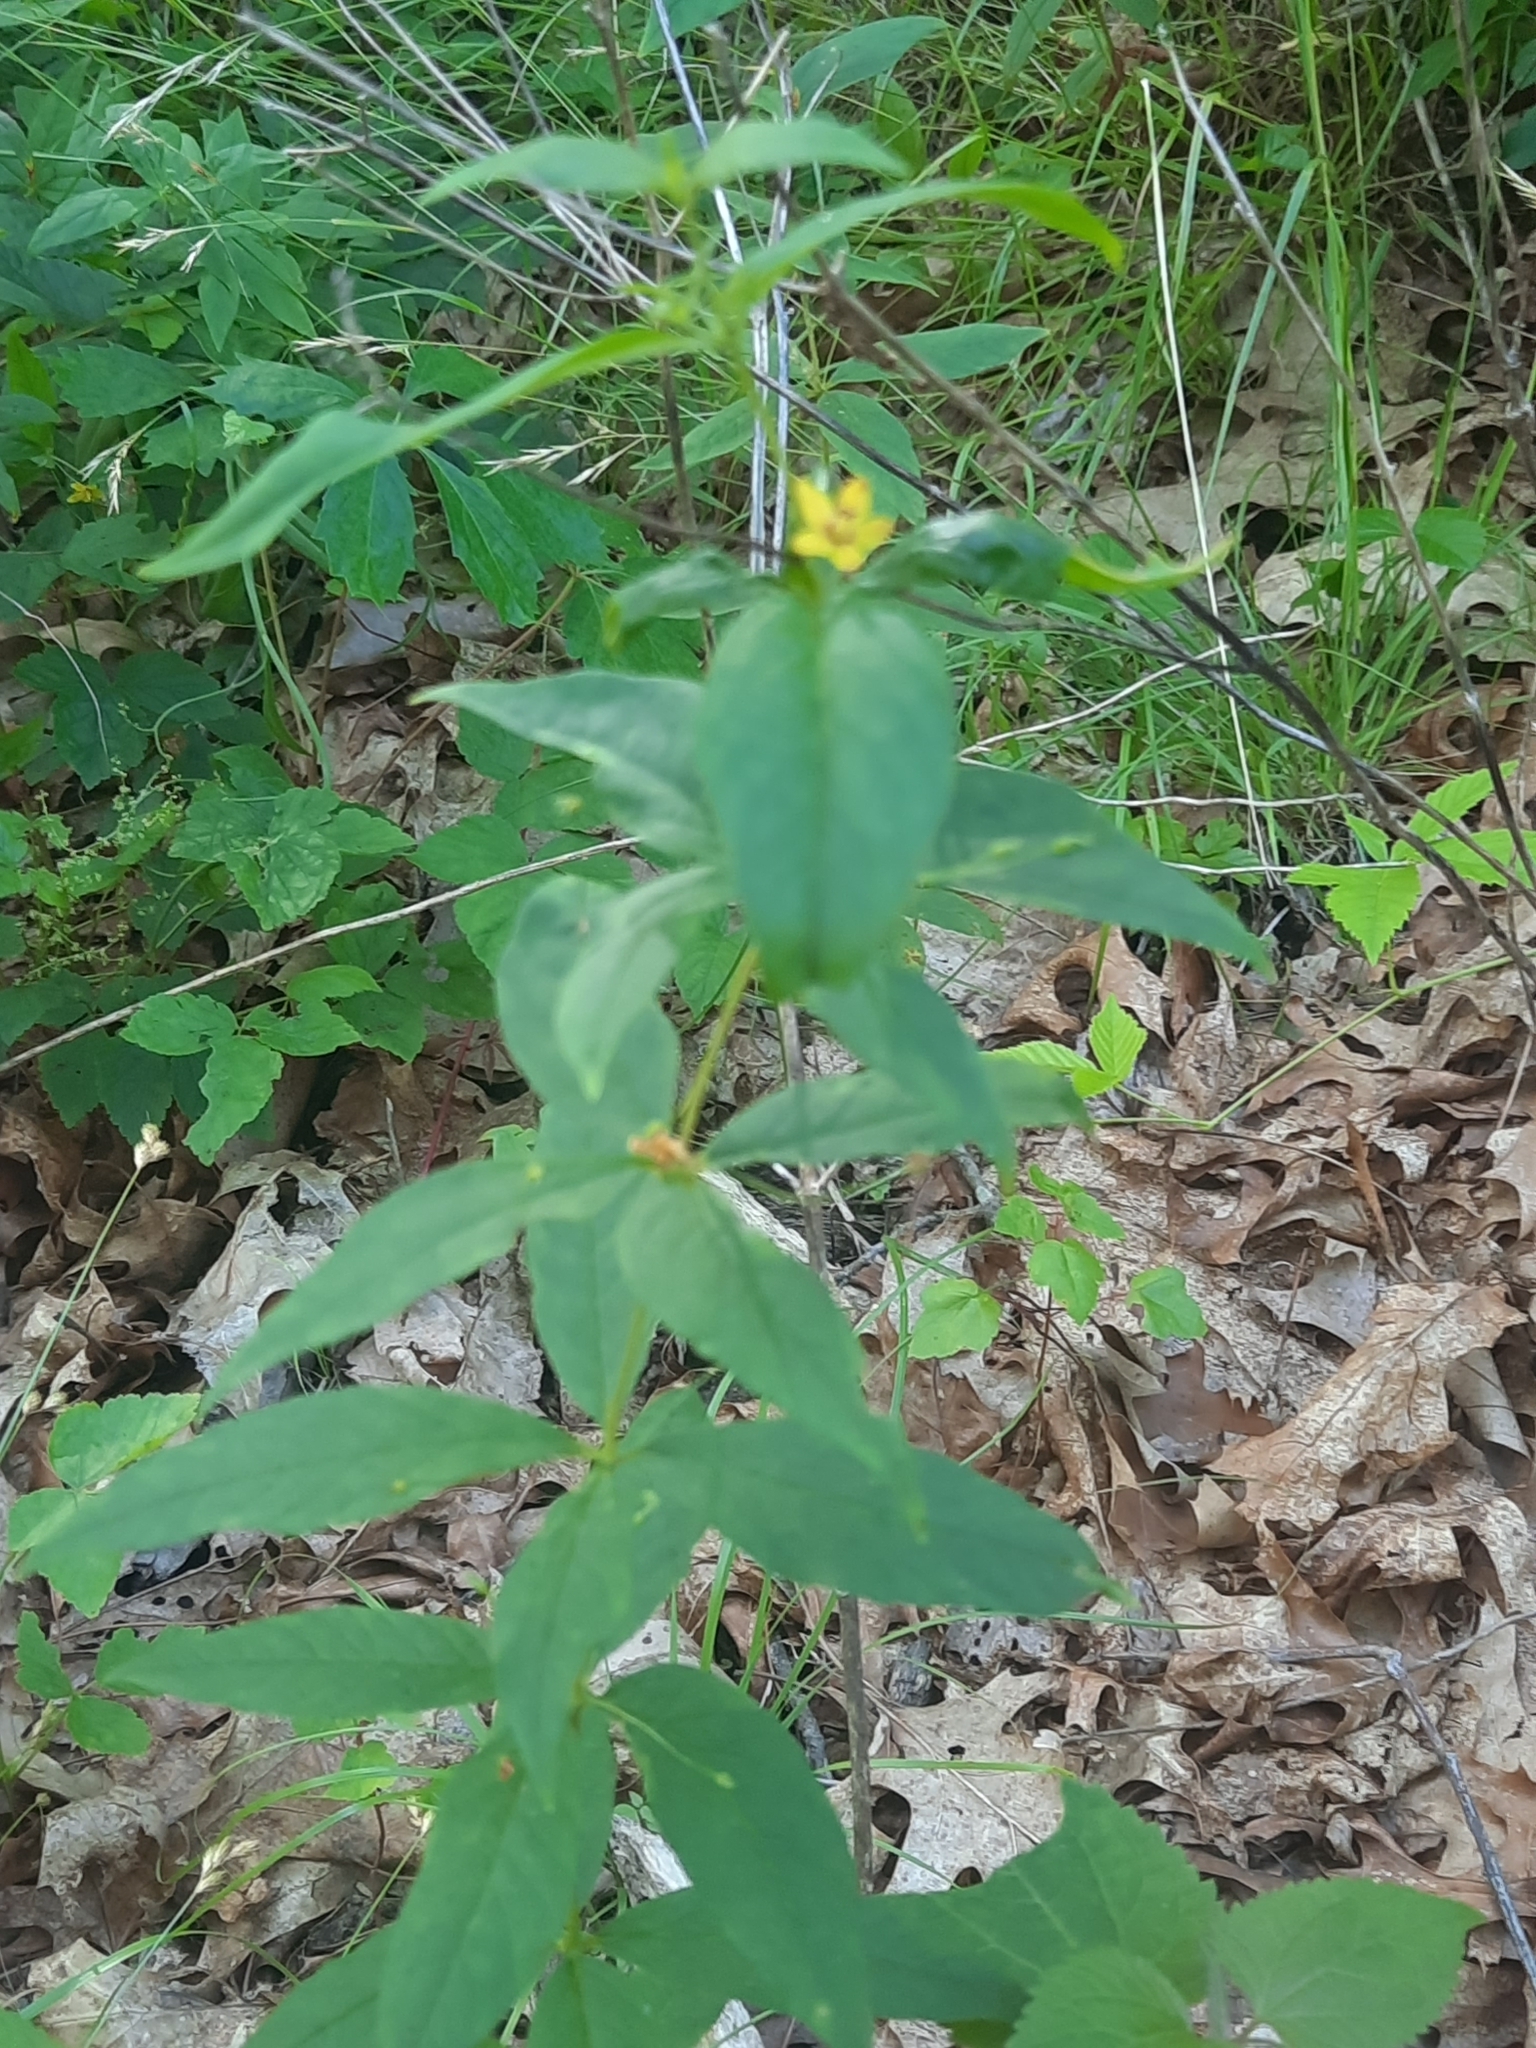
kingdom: Plantae
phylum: Tracheophyta
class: Magnoliopsida
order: Ericales
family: Primulaceae
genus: Lysimachia
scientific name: Lysimachia quadrifolia
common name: Whorled loosestrife
